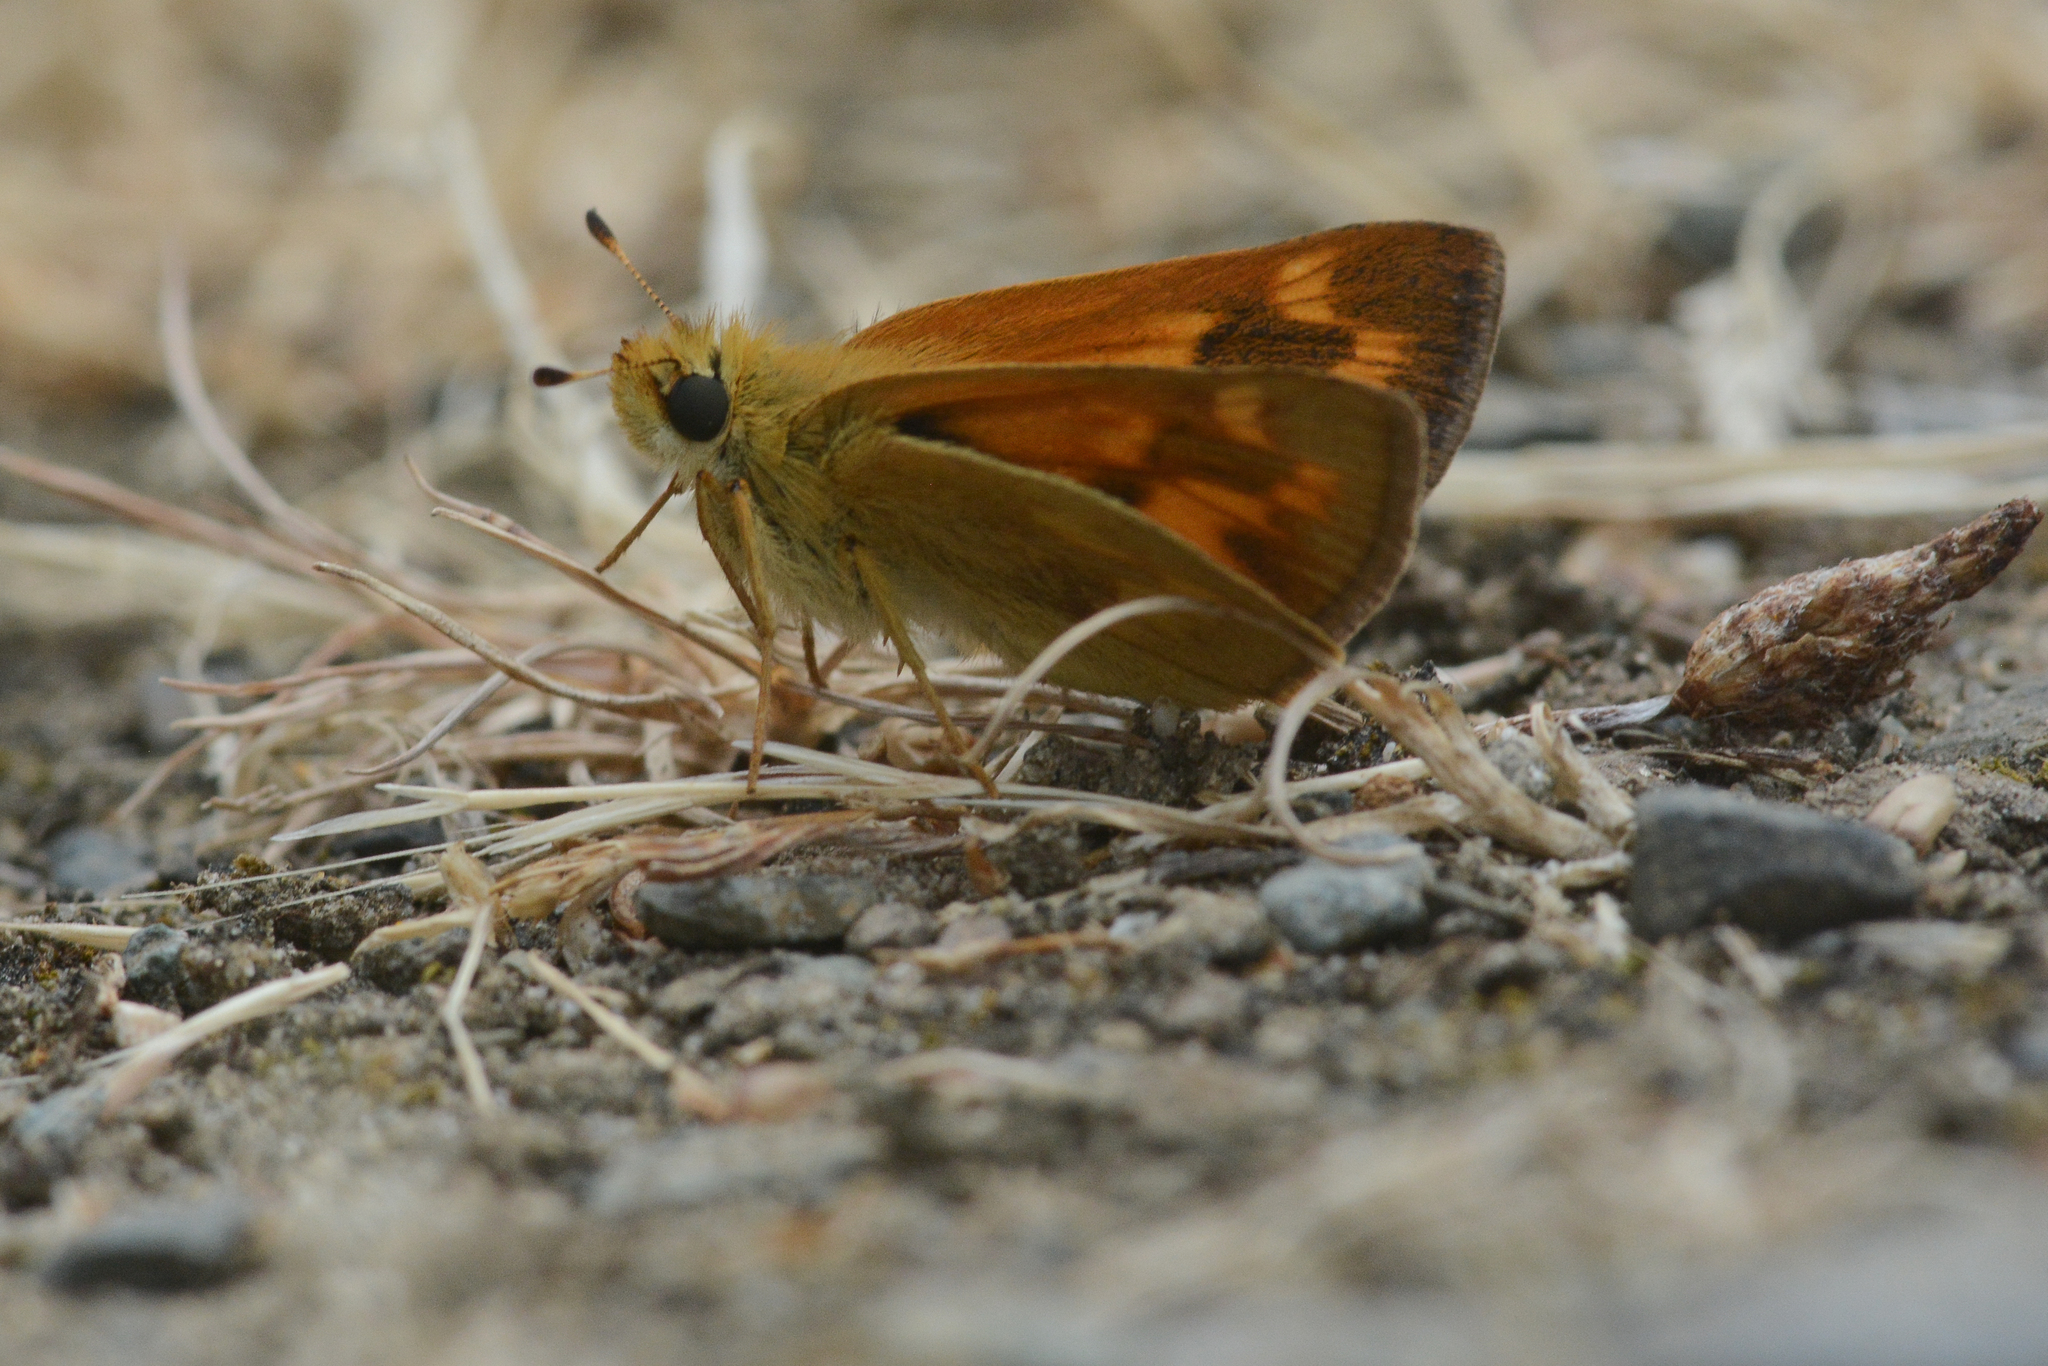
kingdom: Animalia
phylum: Arthropoda
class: Insecta
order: Lepidoptera
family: Hesperiidae
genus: Ochlodes
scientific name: Ochlodes sylvanoides
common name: Woodland skipper
